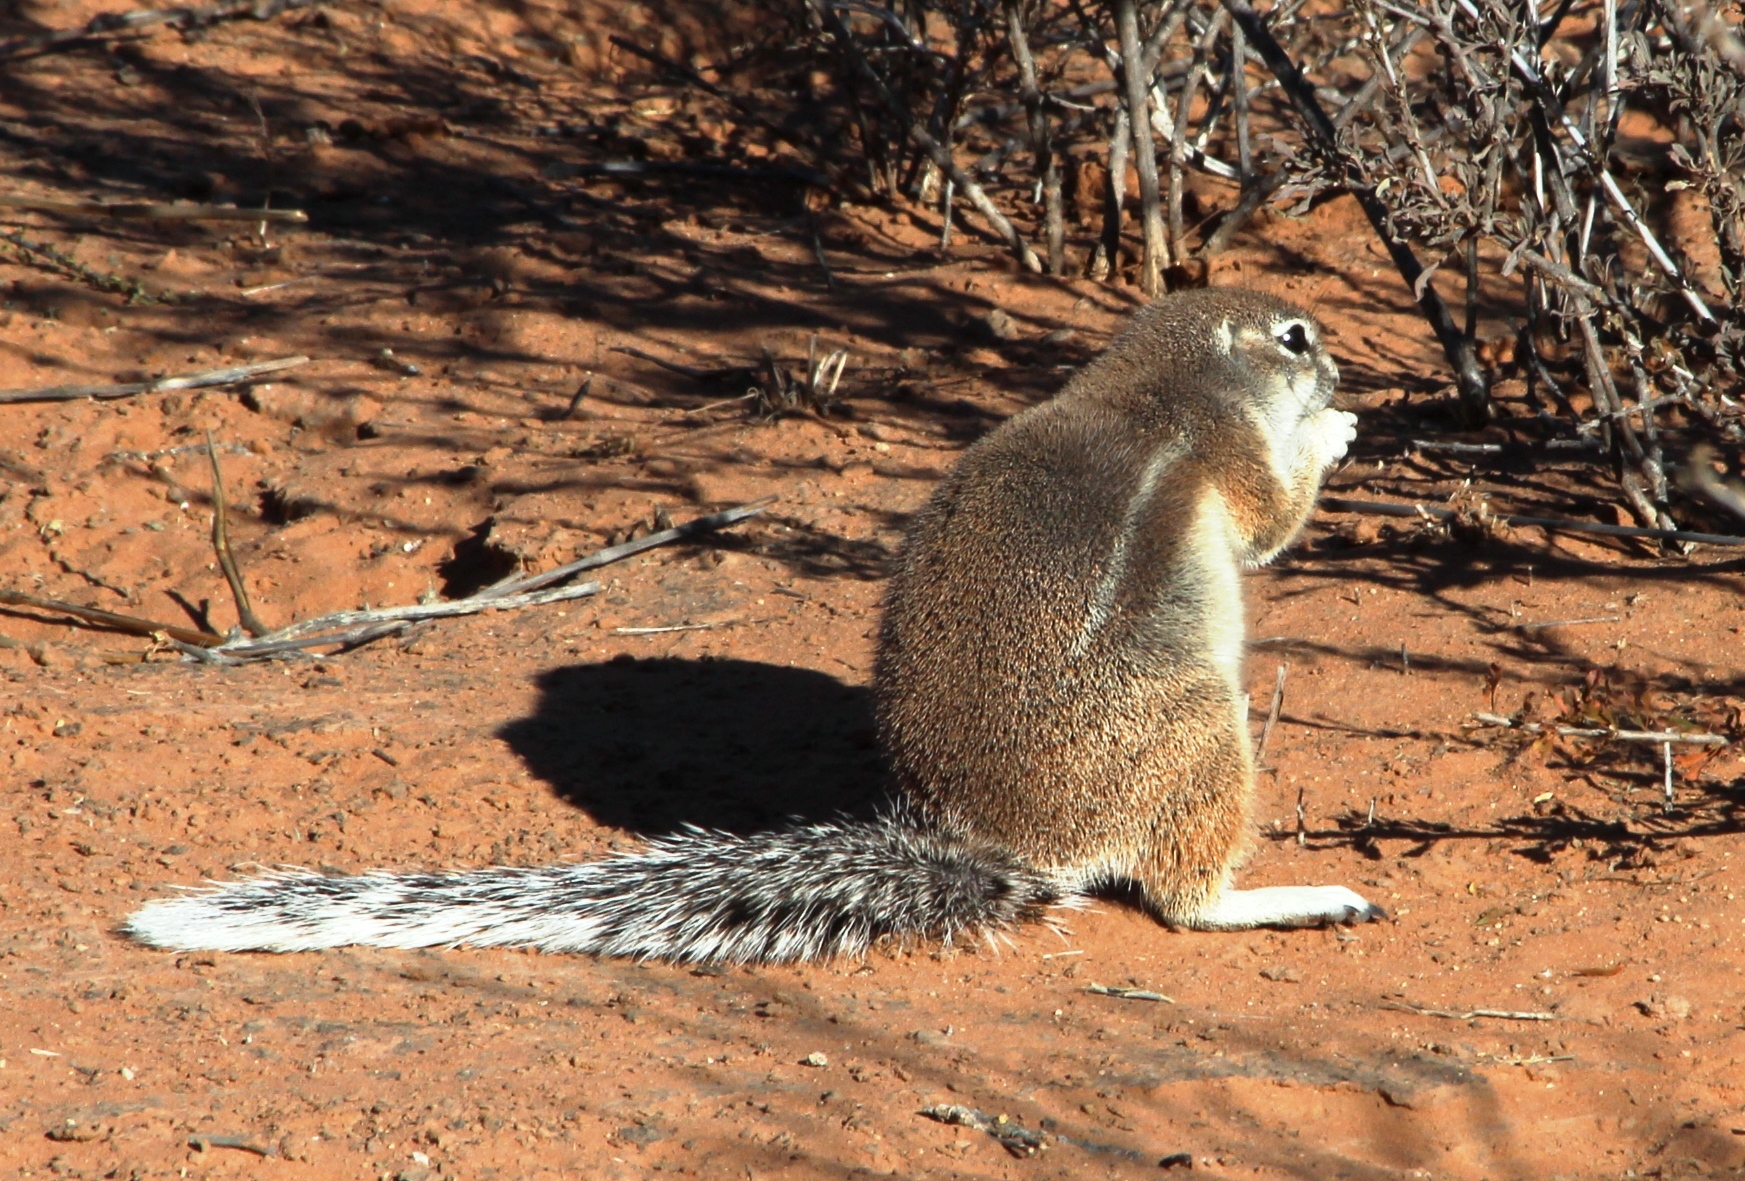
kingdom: Animalia
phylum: Chordata
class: Mammalia
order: Rodentia
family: Sciuridae
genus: Xerus
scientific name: Xerus inauris
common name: South african ground squirrel
